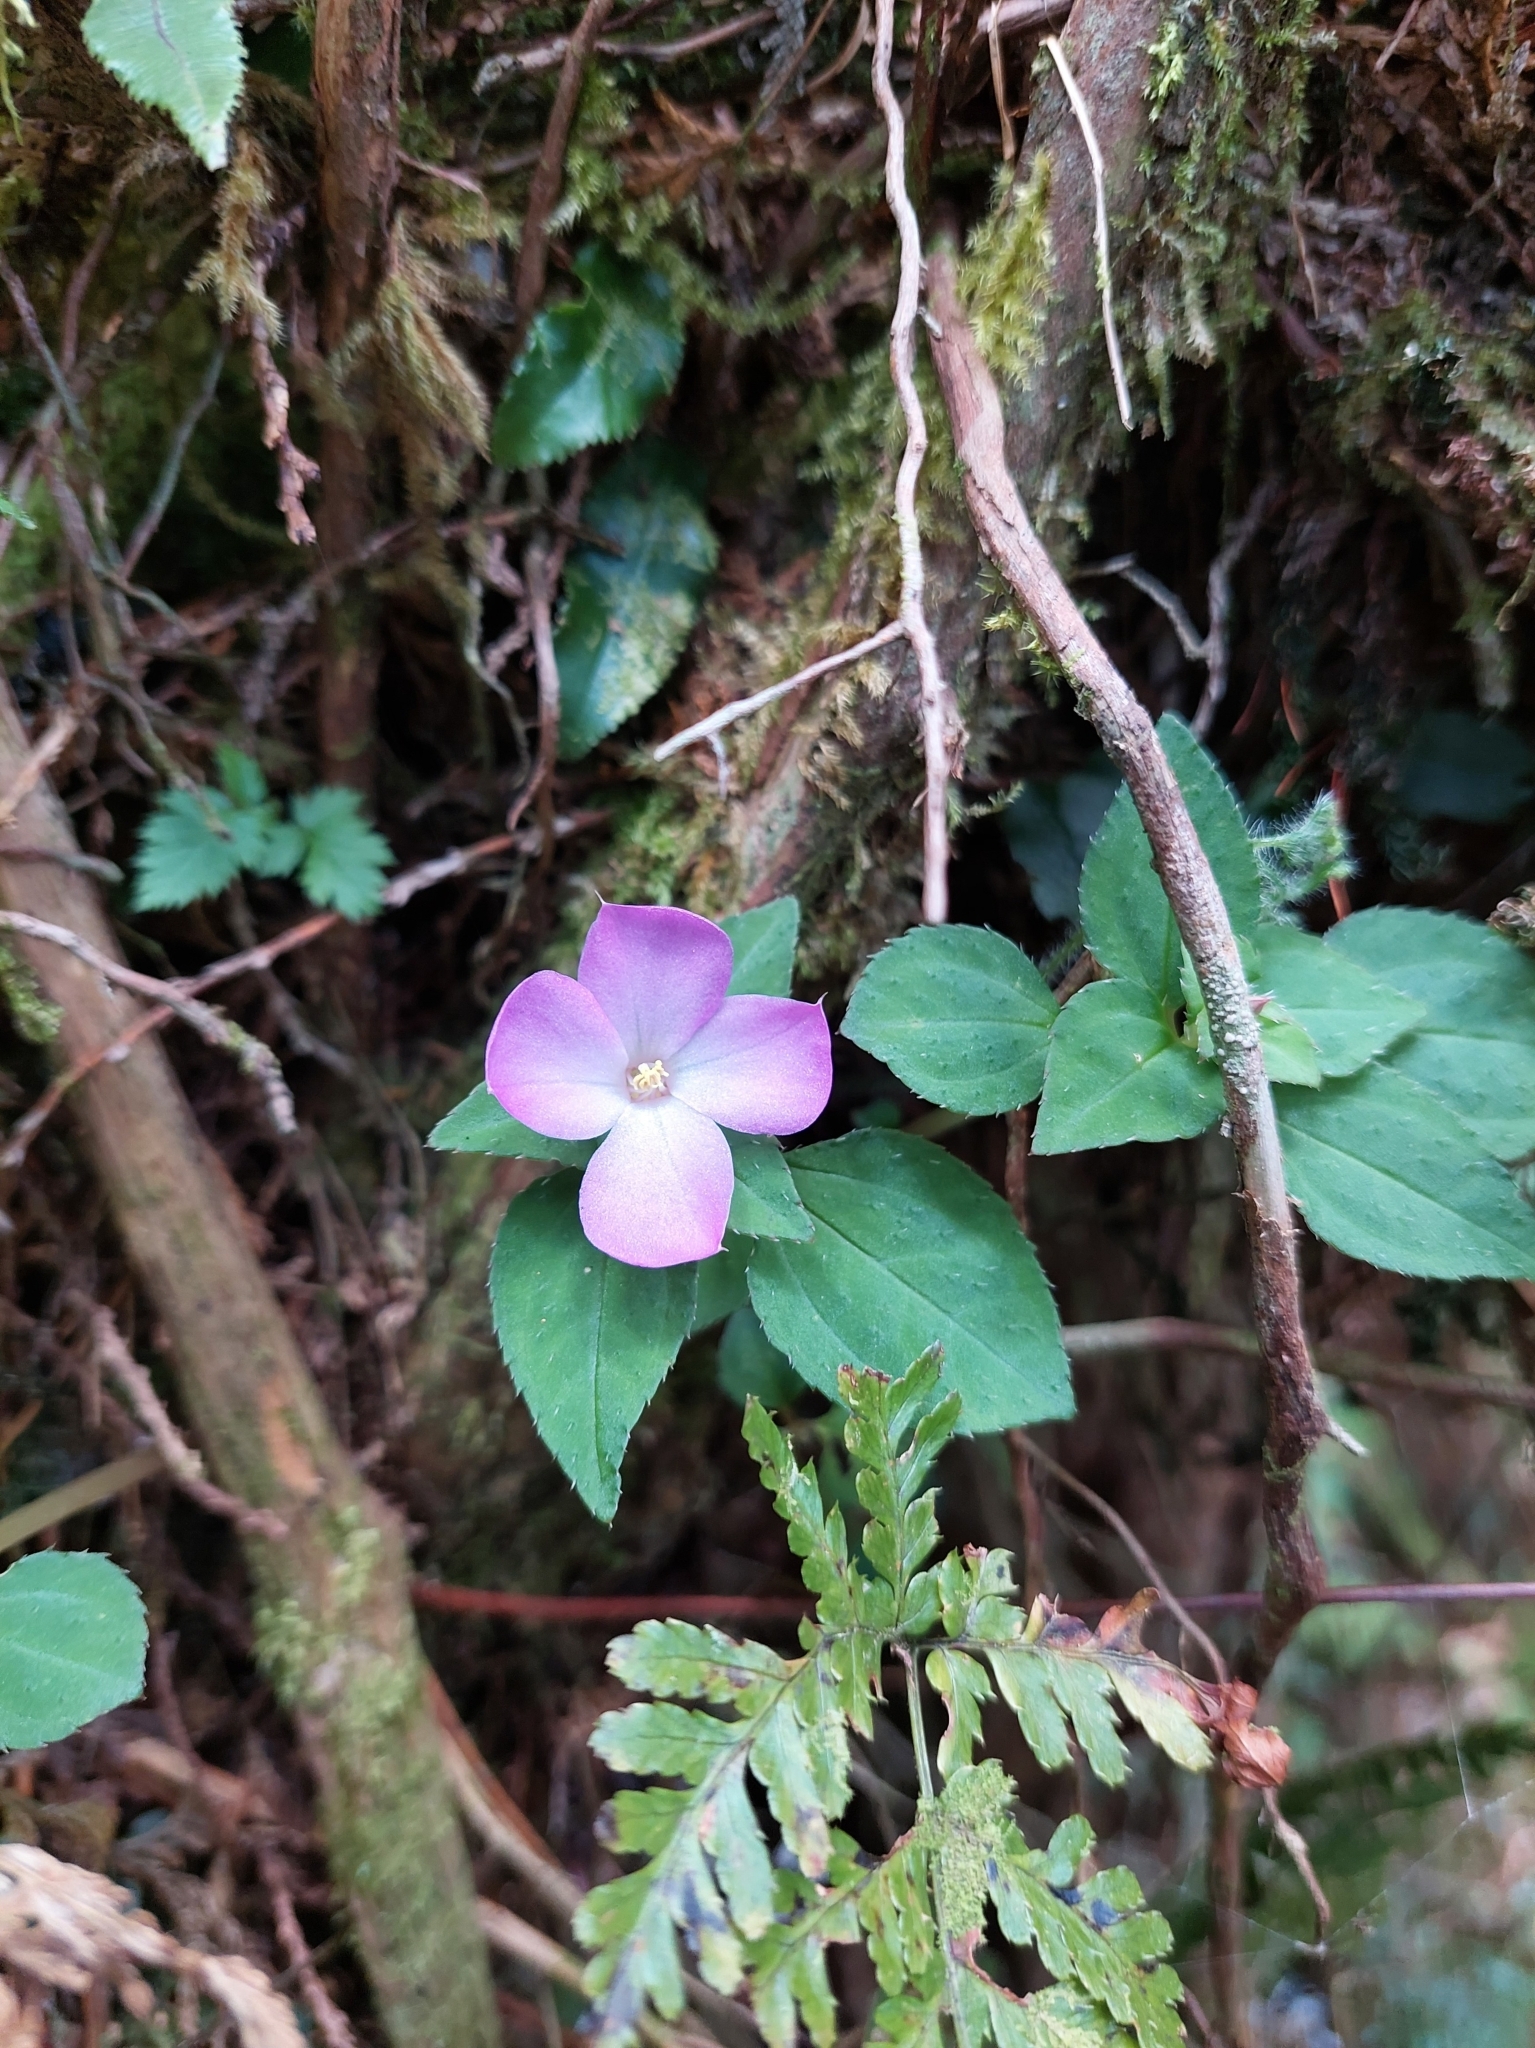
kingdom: Plantae
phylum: Tracheophyta
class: Magnoliopsida
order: Myrtales
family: Melastomataceae
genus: Sarcopyramis
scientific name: Sarcopyramis napalensis
